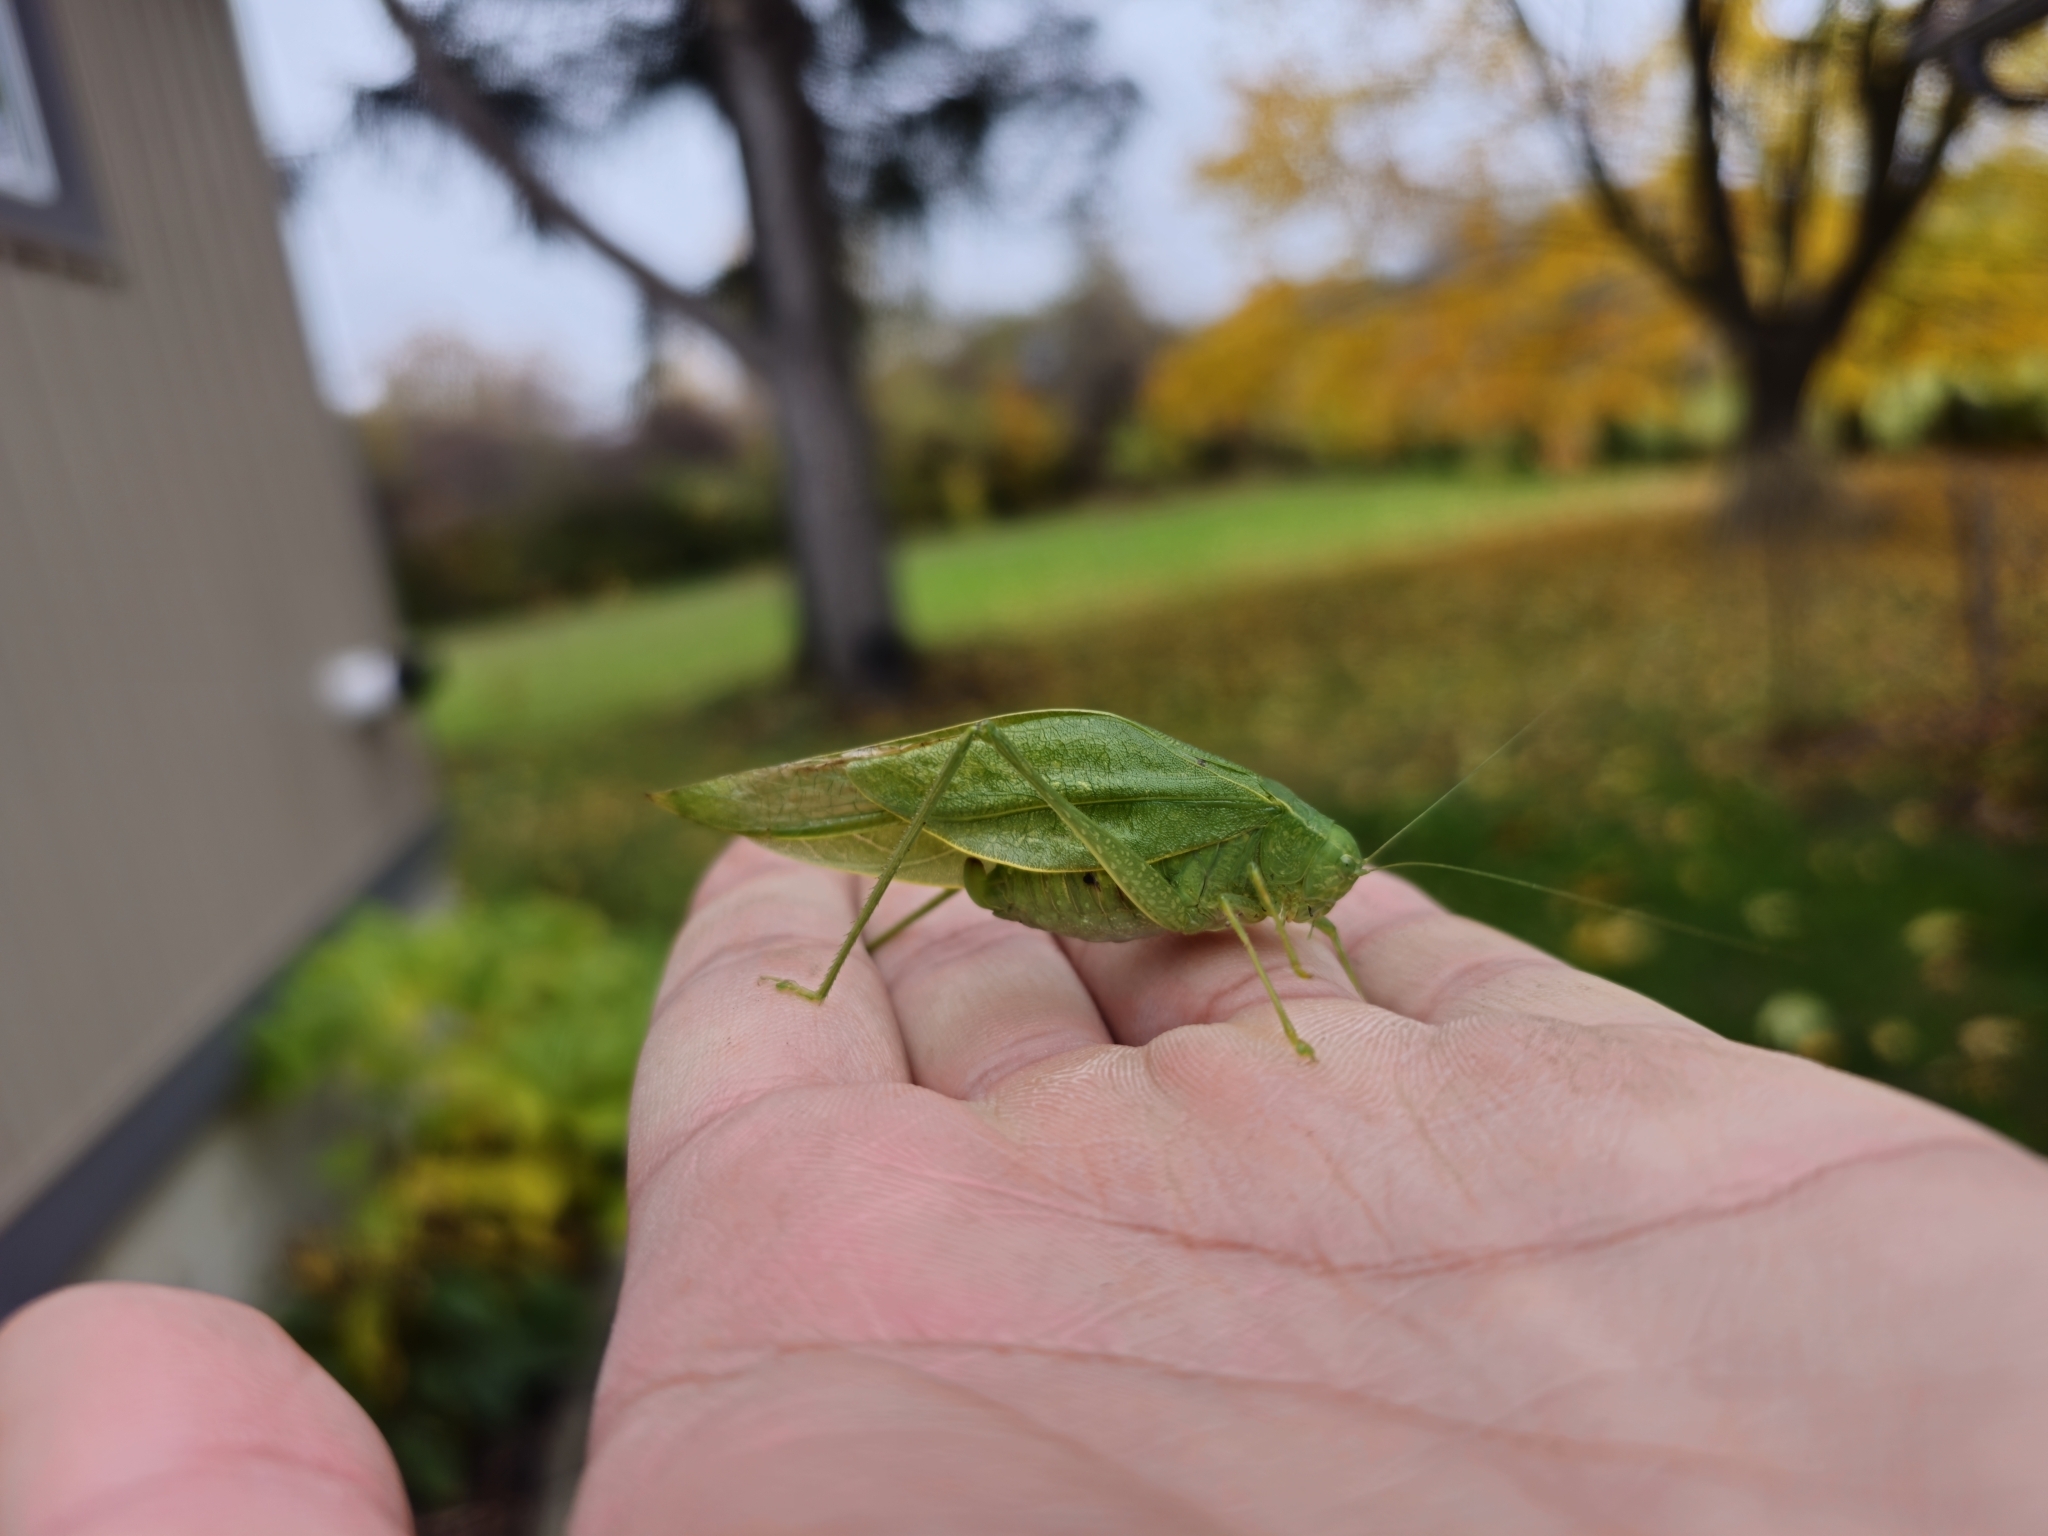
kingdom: Animalia
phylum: Arthropoda
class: Insecta
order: Orthoptera
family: Tettigoniidae
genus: Microcentrum
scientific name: Microcentrum rhombifolium
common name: Broad-winged katydid
